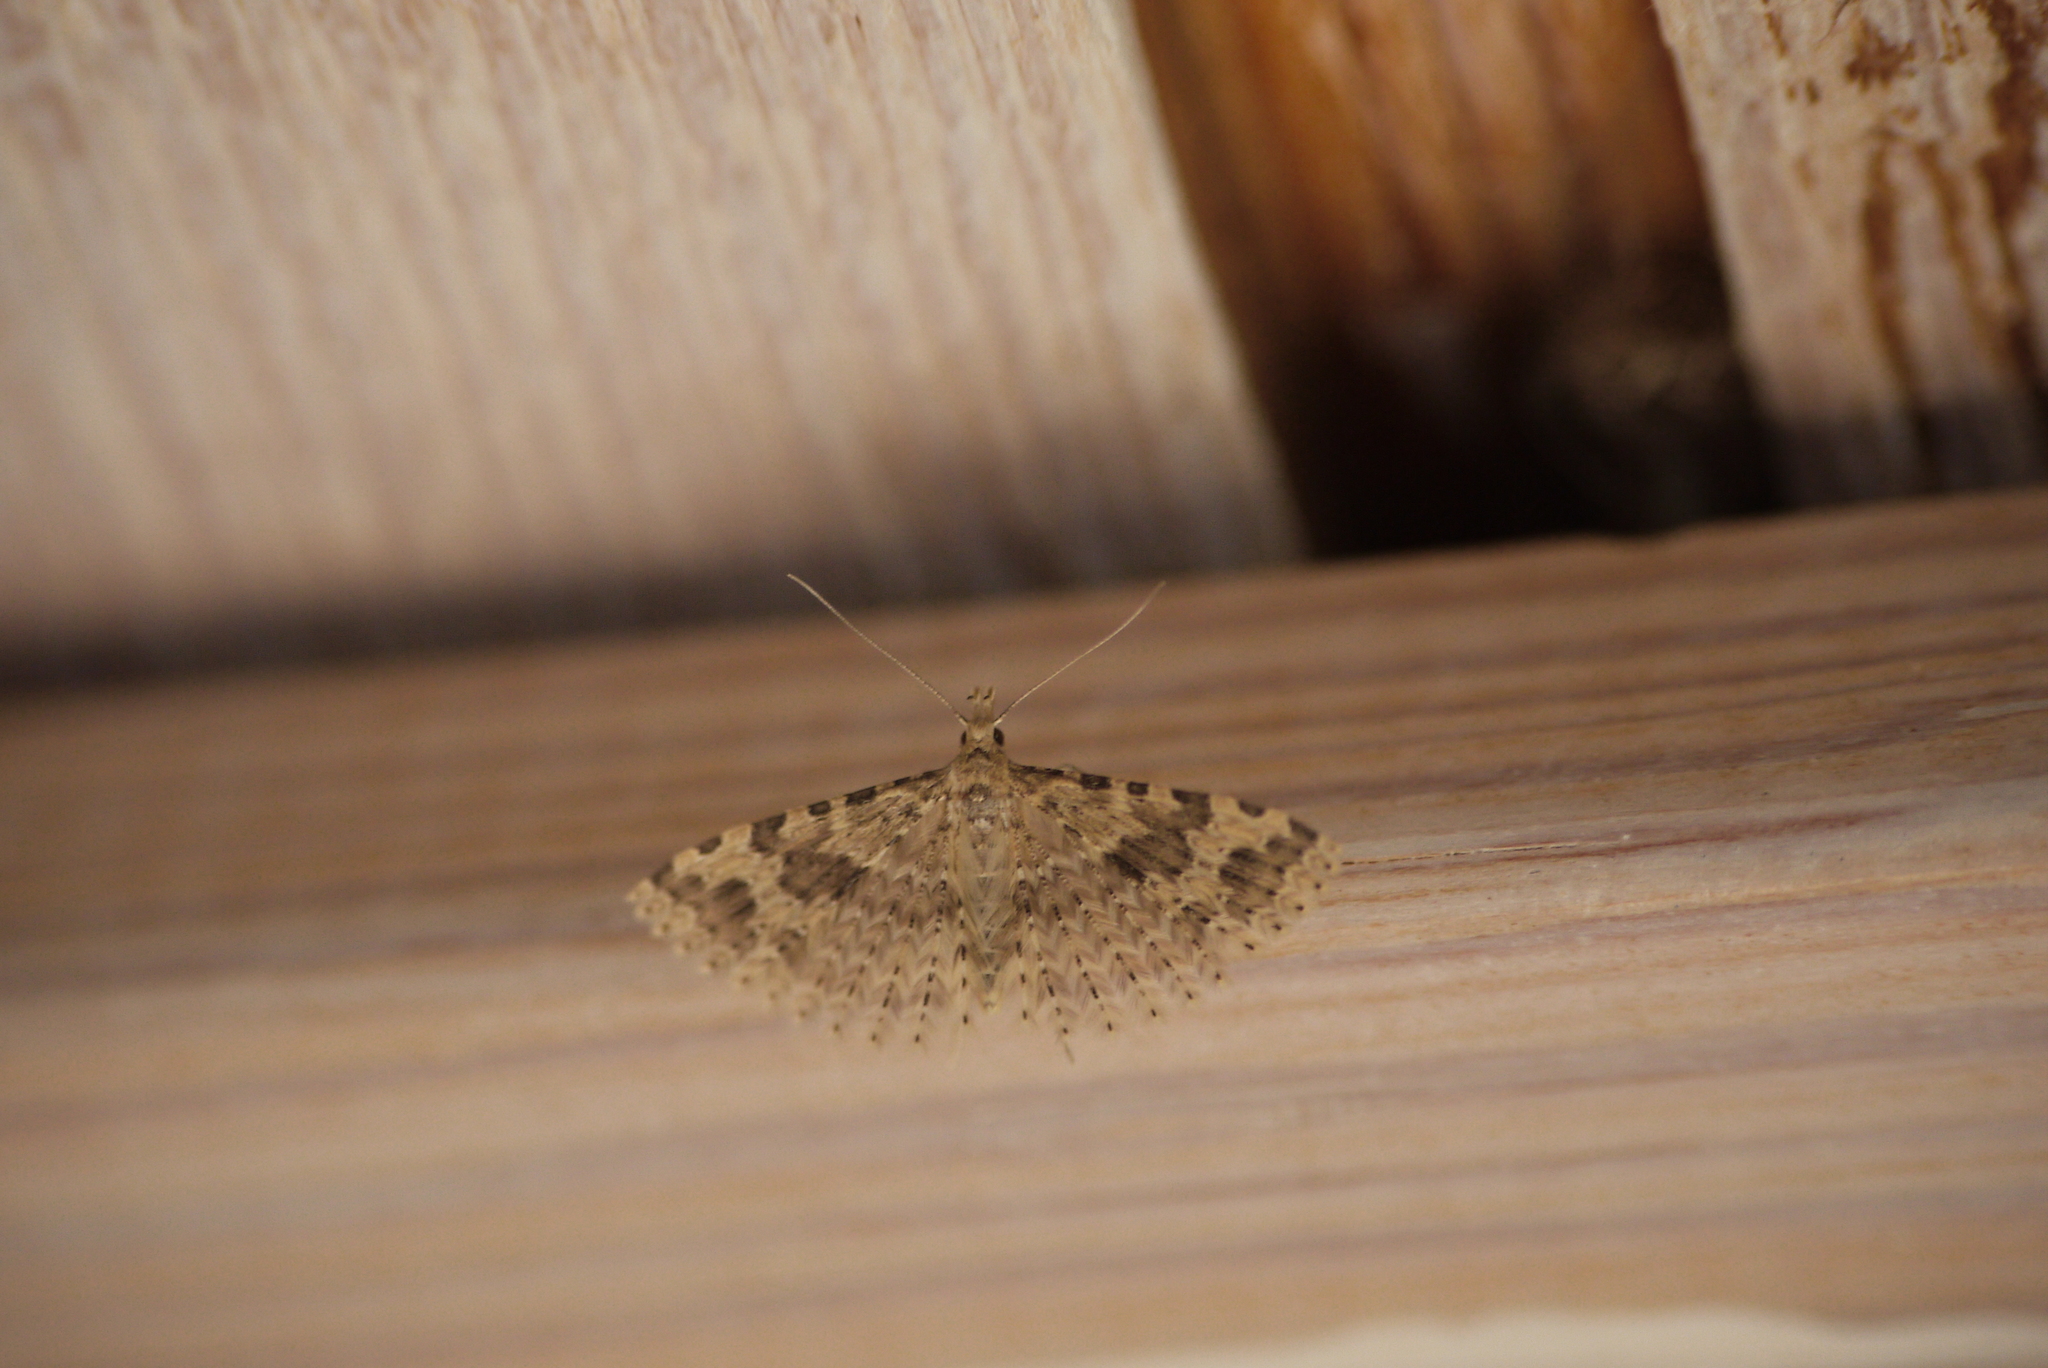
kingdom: Animalia
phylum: Arthropoda
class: Insecta
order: Lepidoptera
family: Alucitidae
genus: Alucita
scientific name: Alucita hexadactyla
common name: Twenty-plume moth
